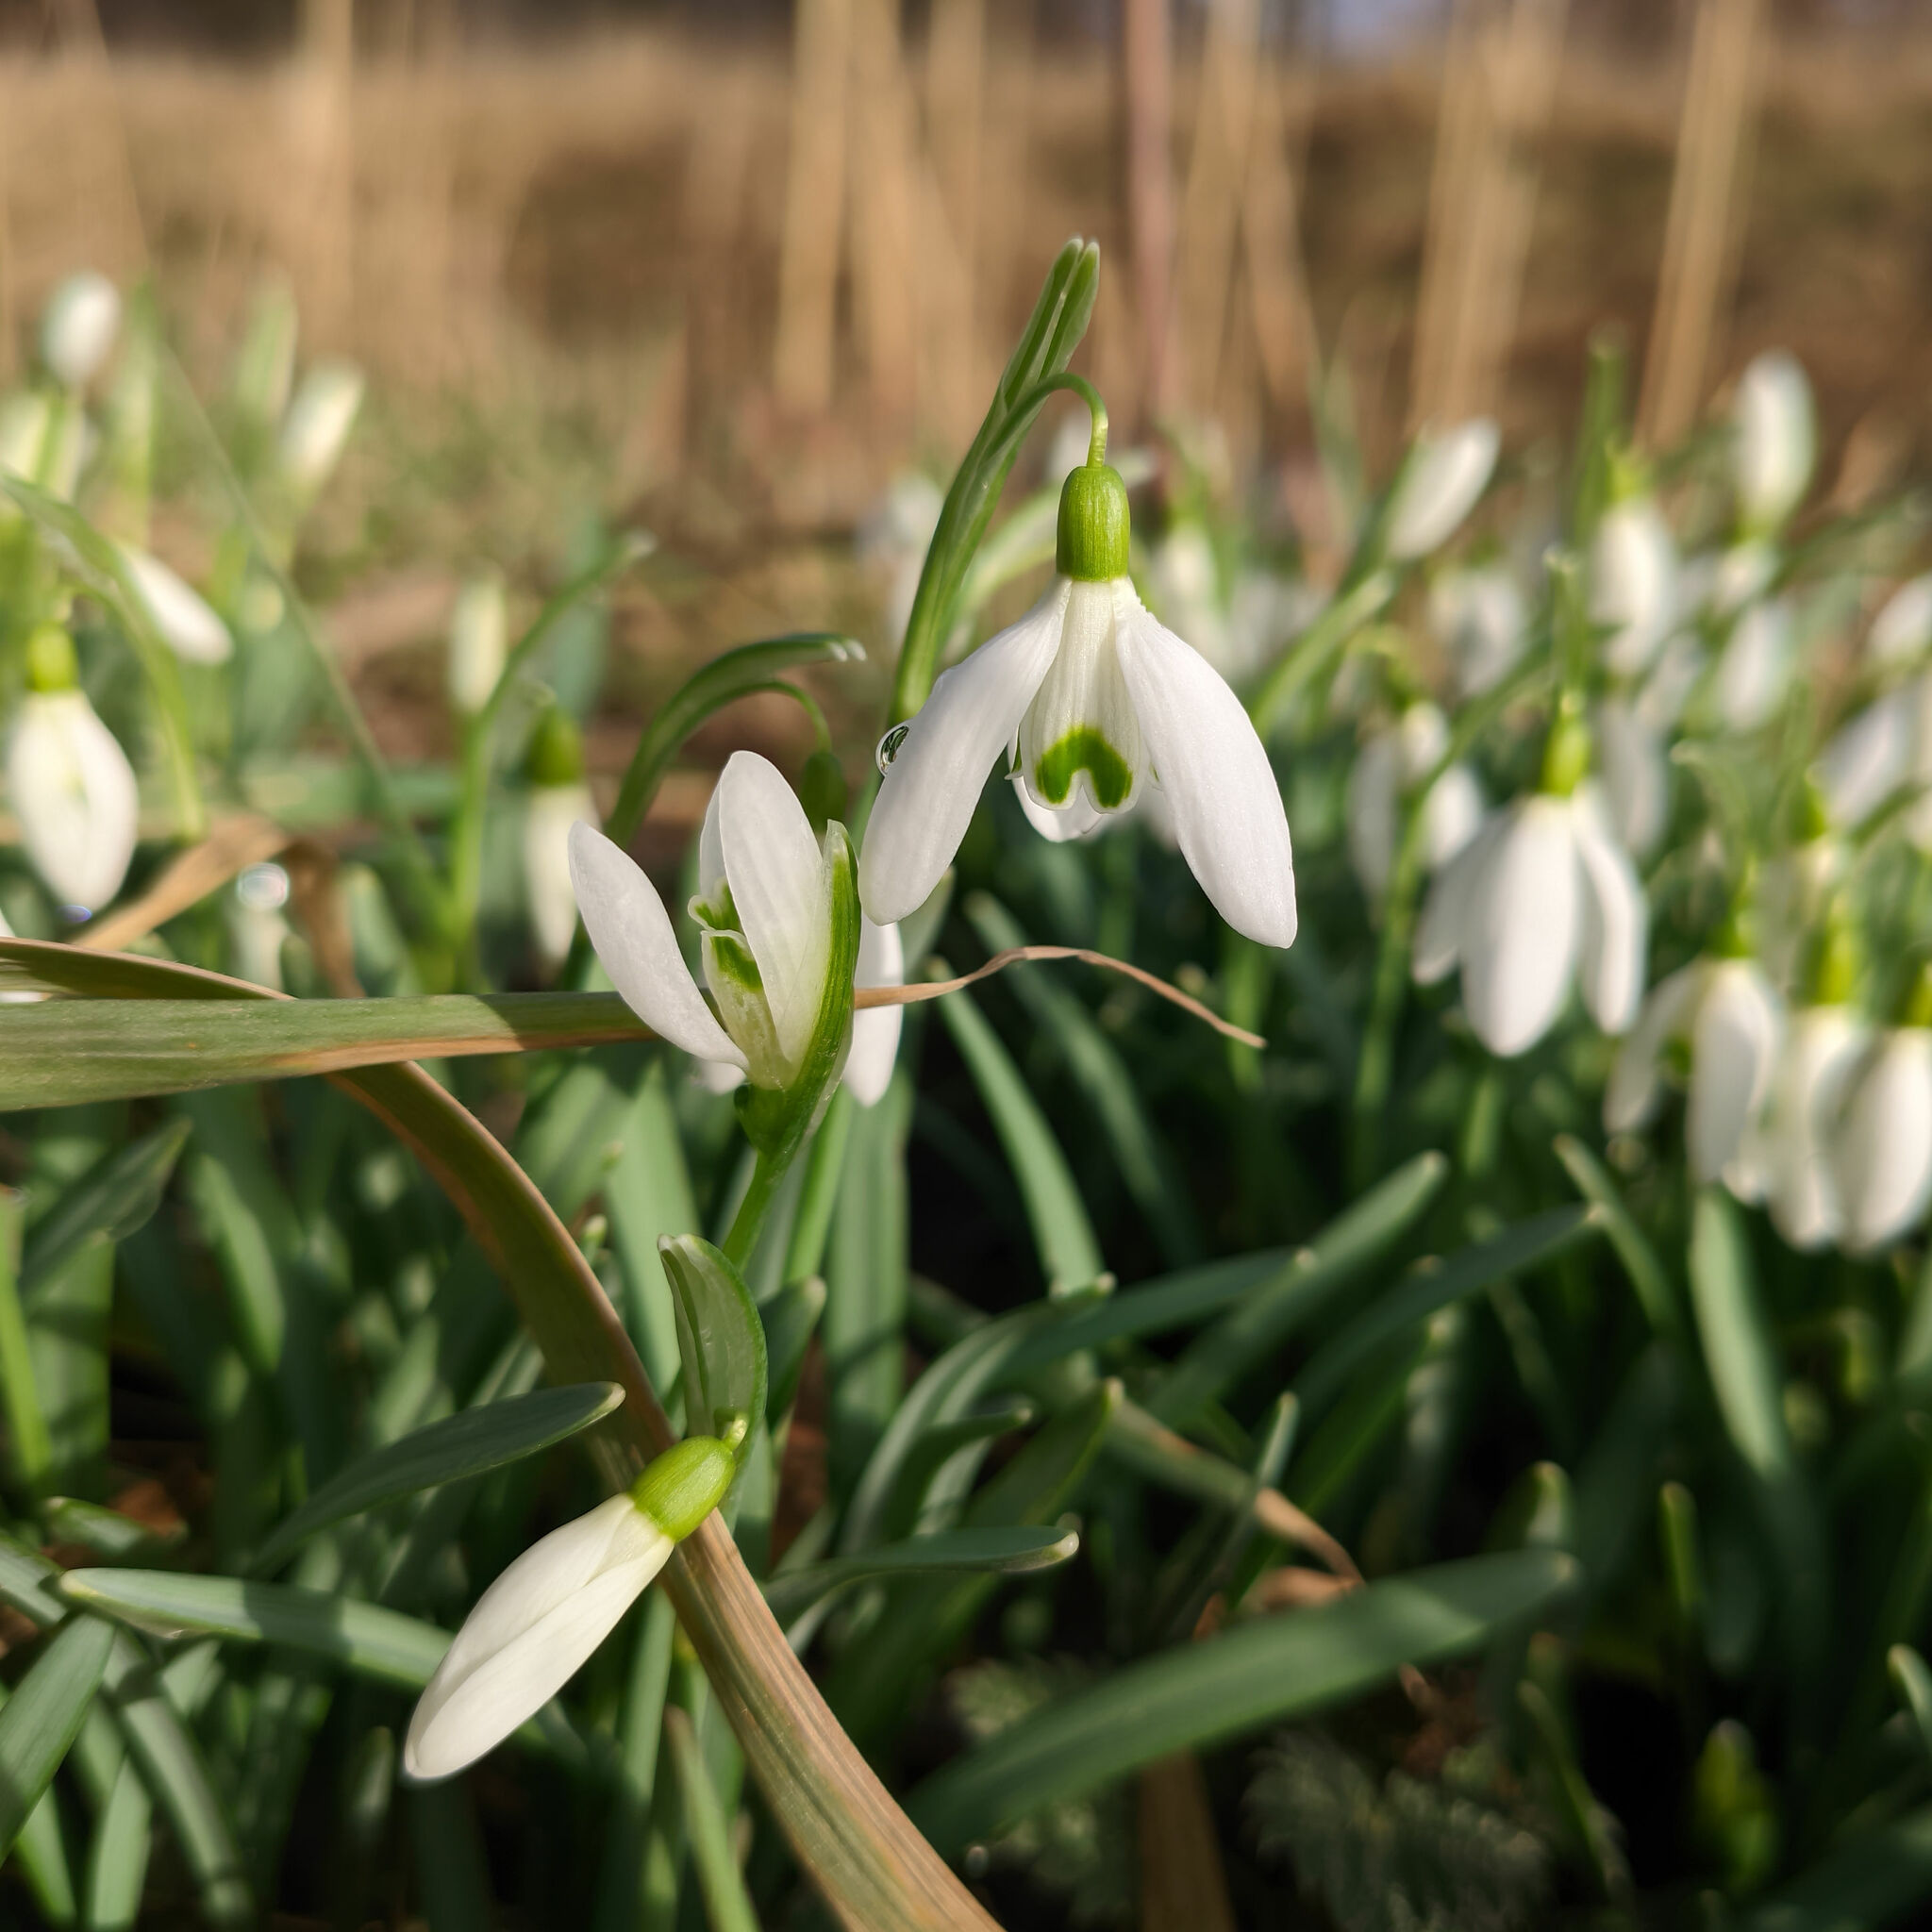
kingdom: Plantae
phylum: Tracheophyta
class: Liliopsida
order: Asparagales
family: Amaryllidaceae
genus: Galanthus
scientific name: Galanthus nivalis
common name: Snowdrop
